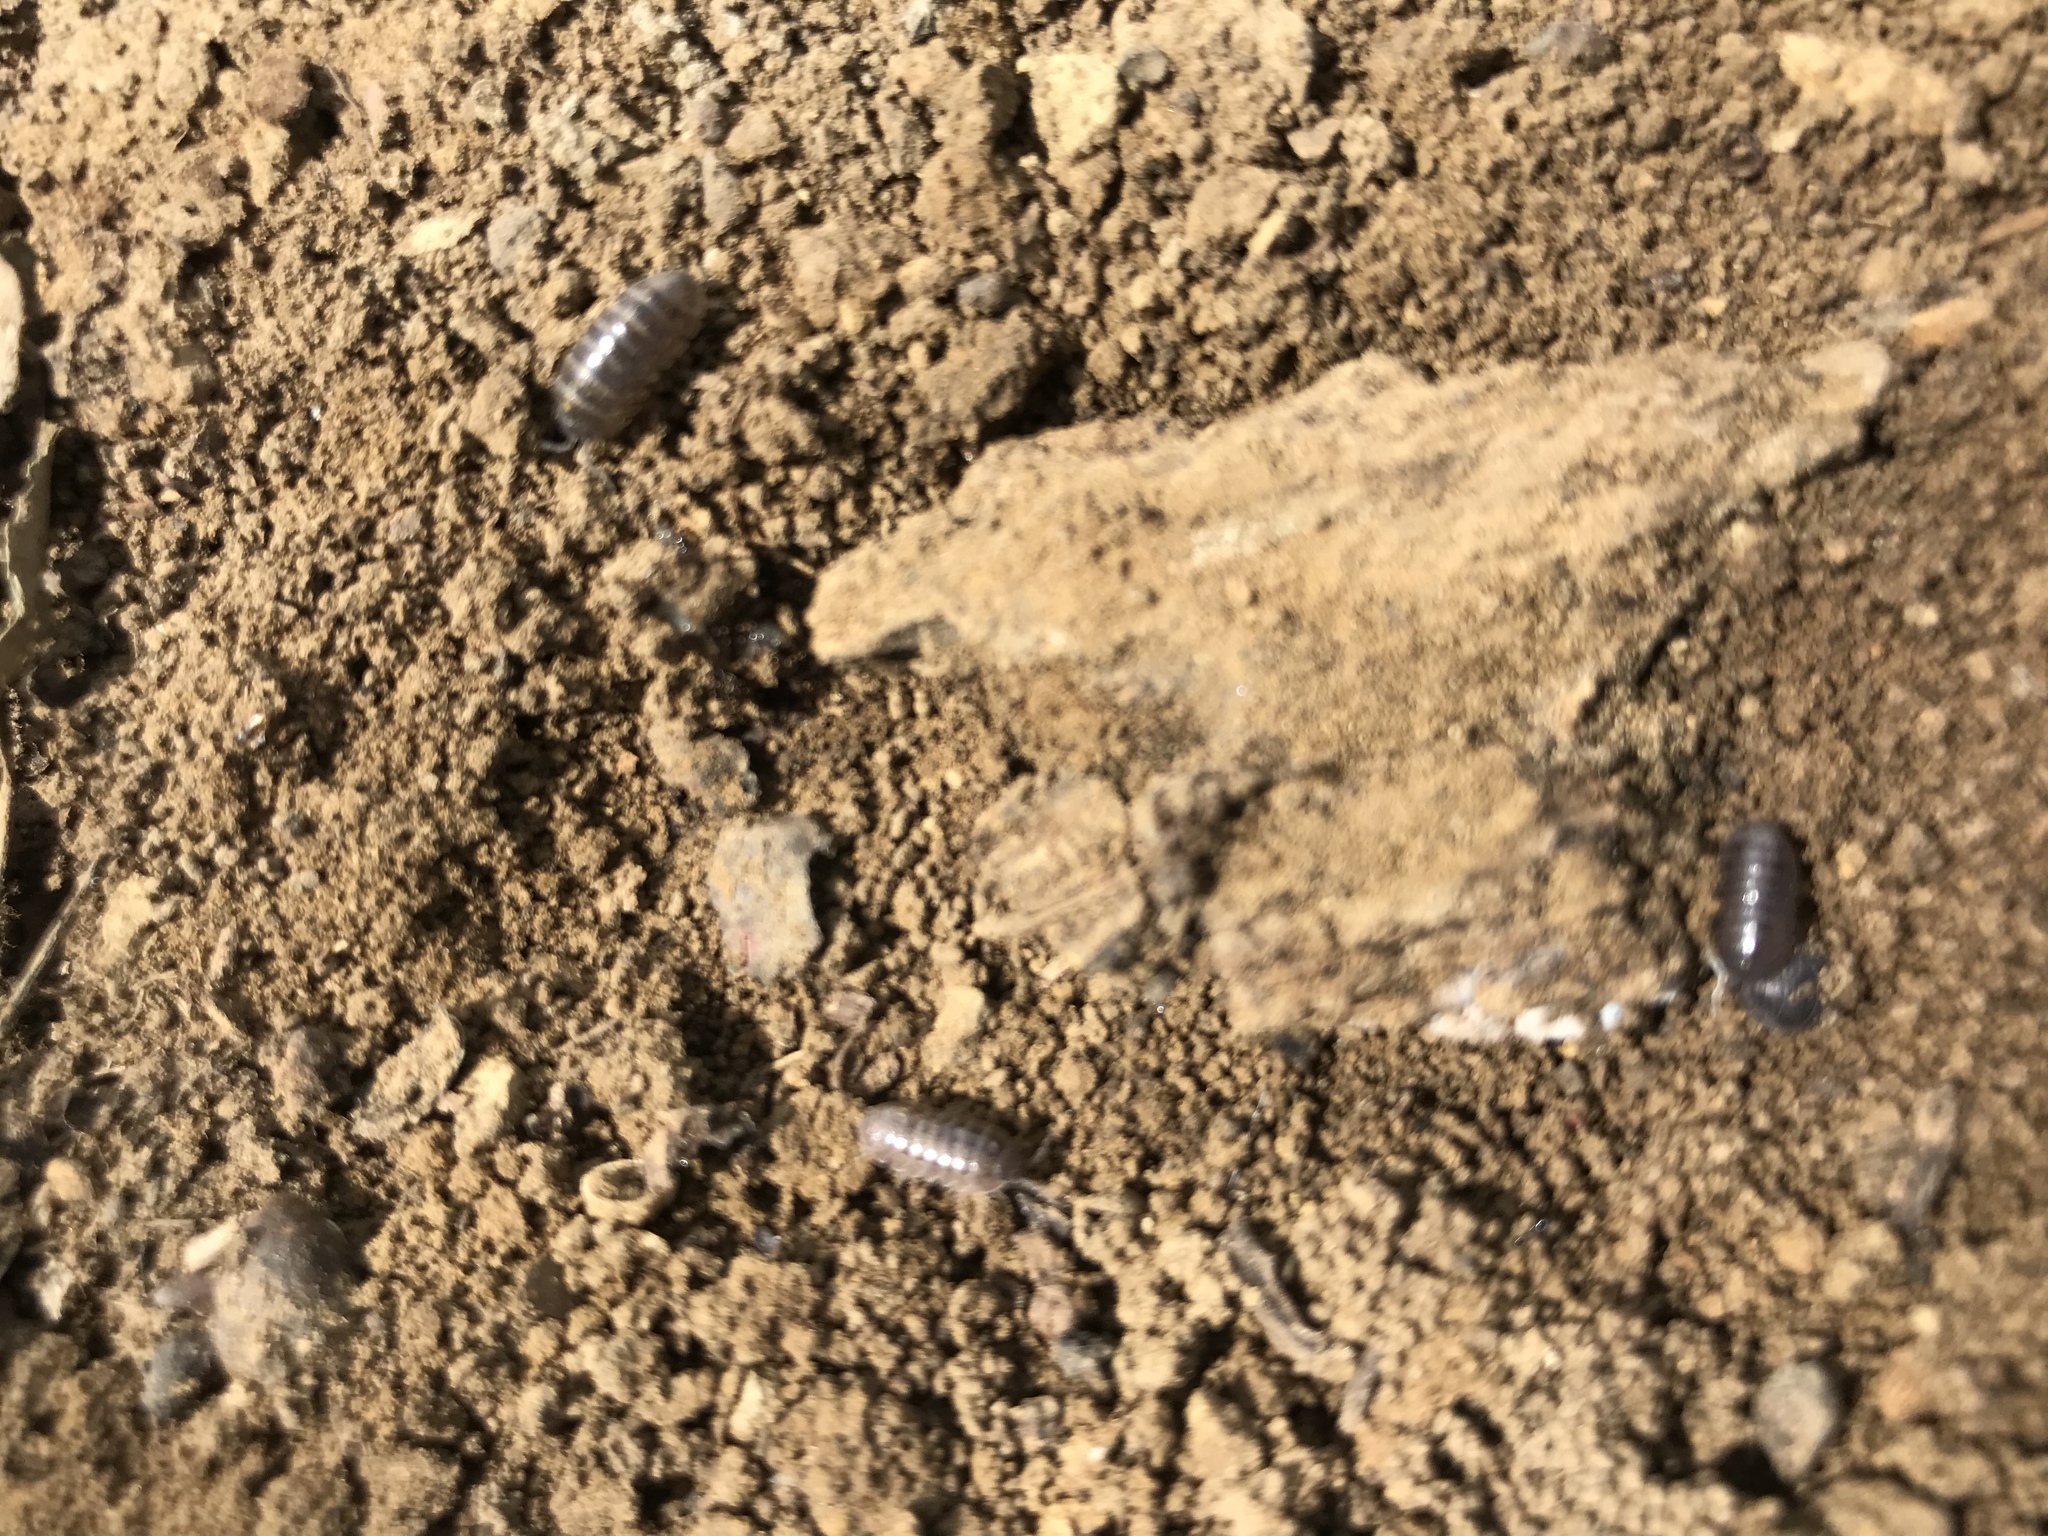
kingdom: Animalia
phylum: Arthropoda
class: Malacostraca
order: Isopoda
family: Armadillidiidae
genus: Armadillidium
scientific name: Armadillidium vulgare
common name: Common pill woodlouse
